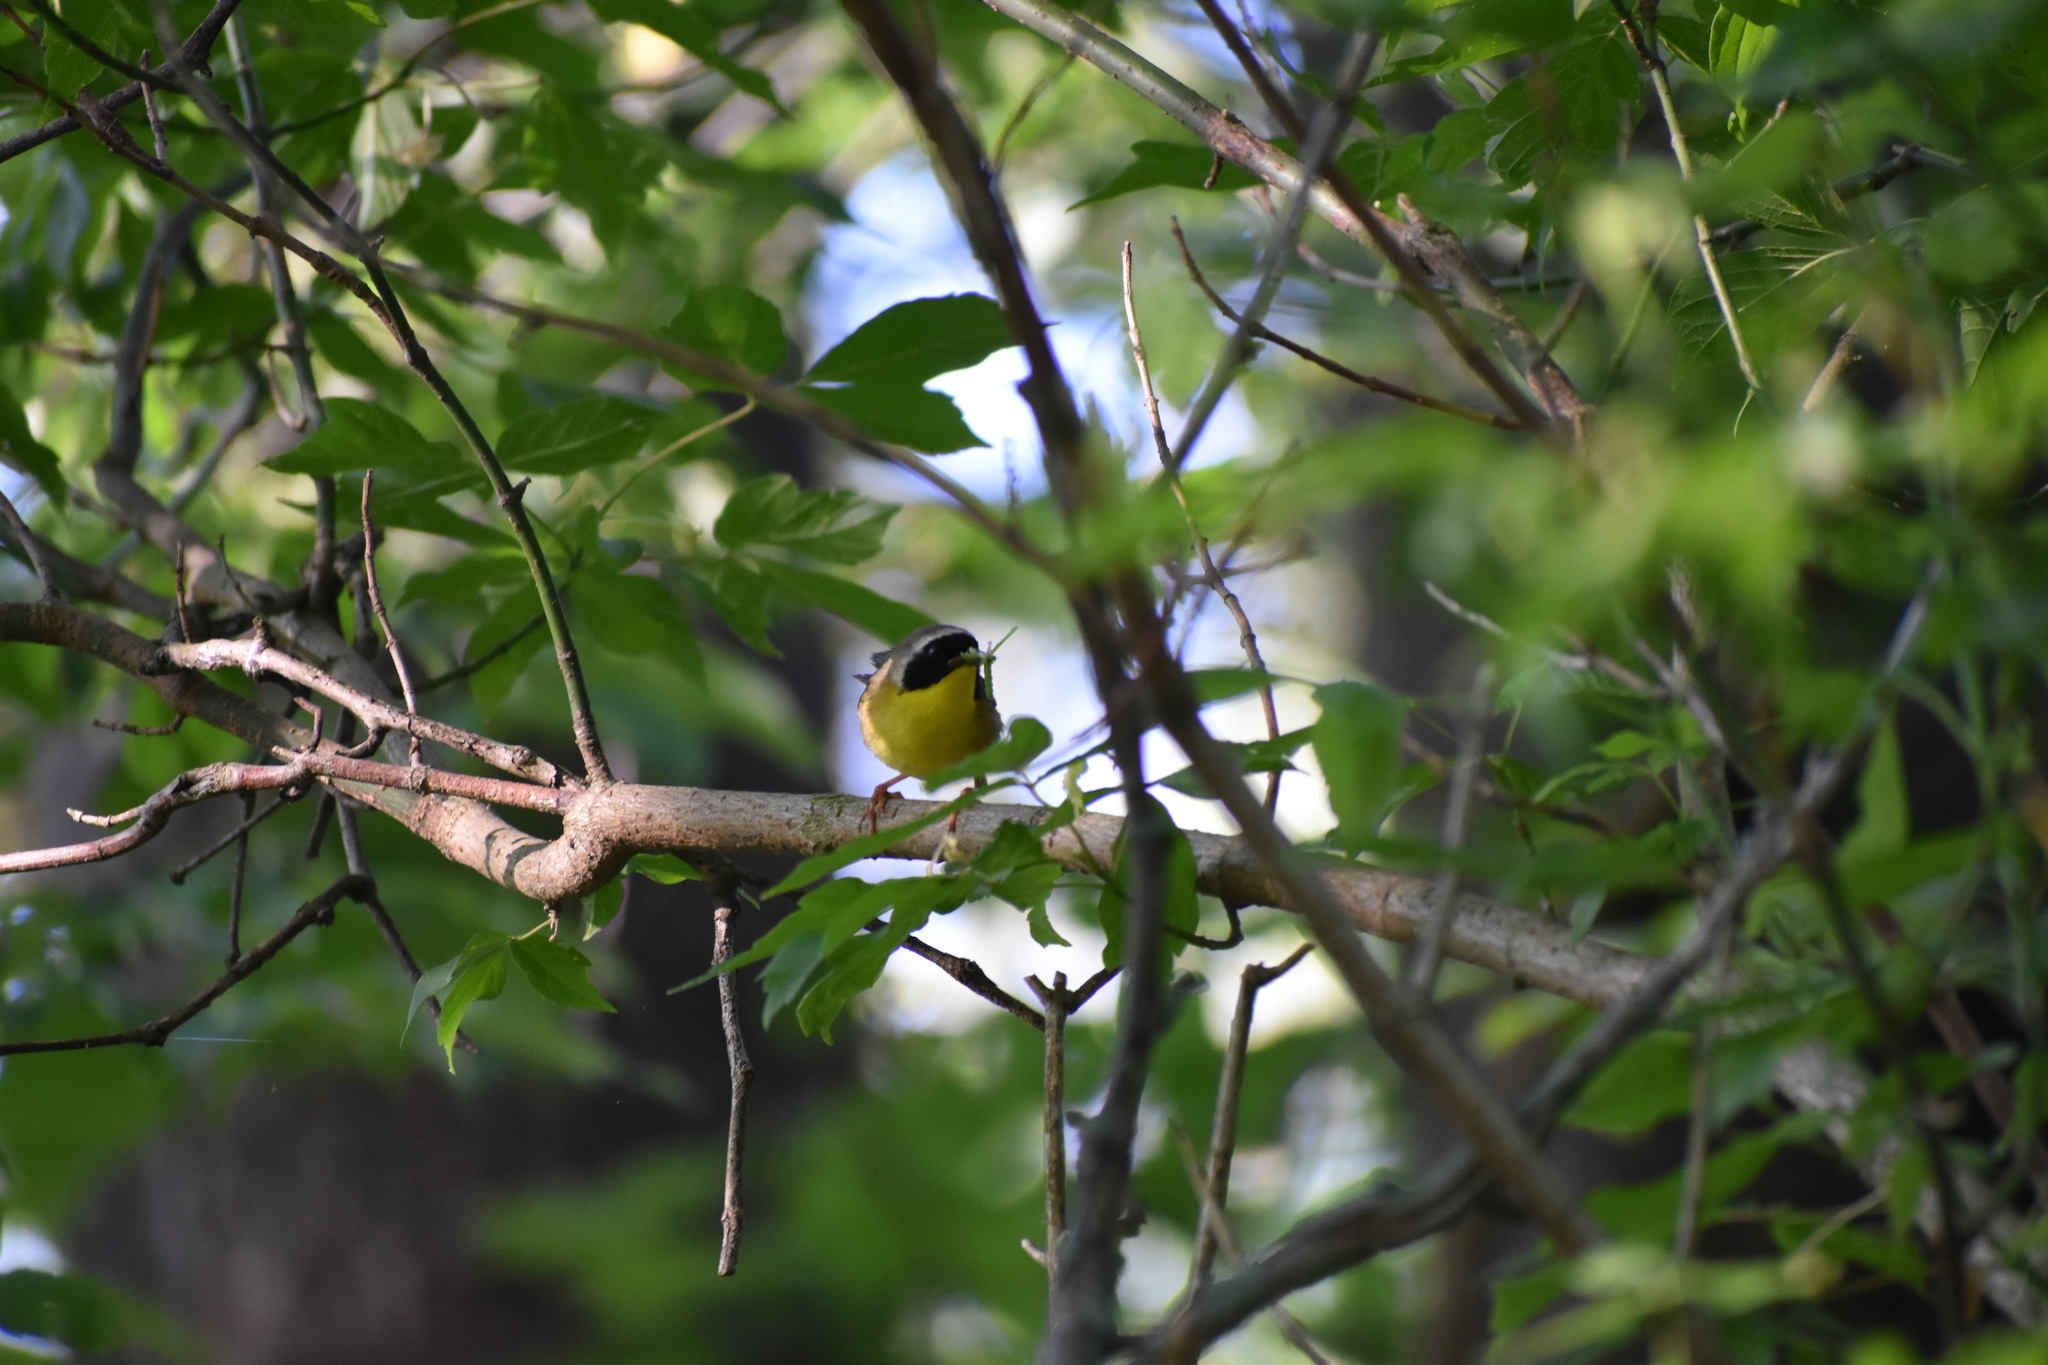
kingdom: Animalia
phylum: Chordata
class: Aves
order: Passeriformes
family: Parulidae
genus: Geothlypis
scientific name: Geothlypis trichas
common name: Common yellowthroat
